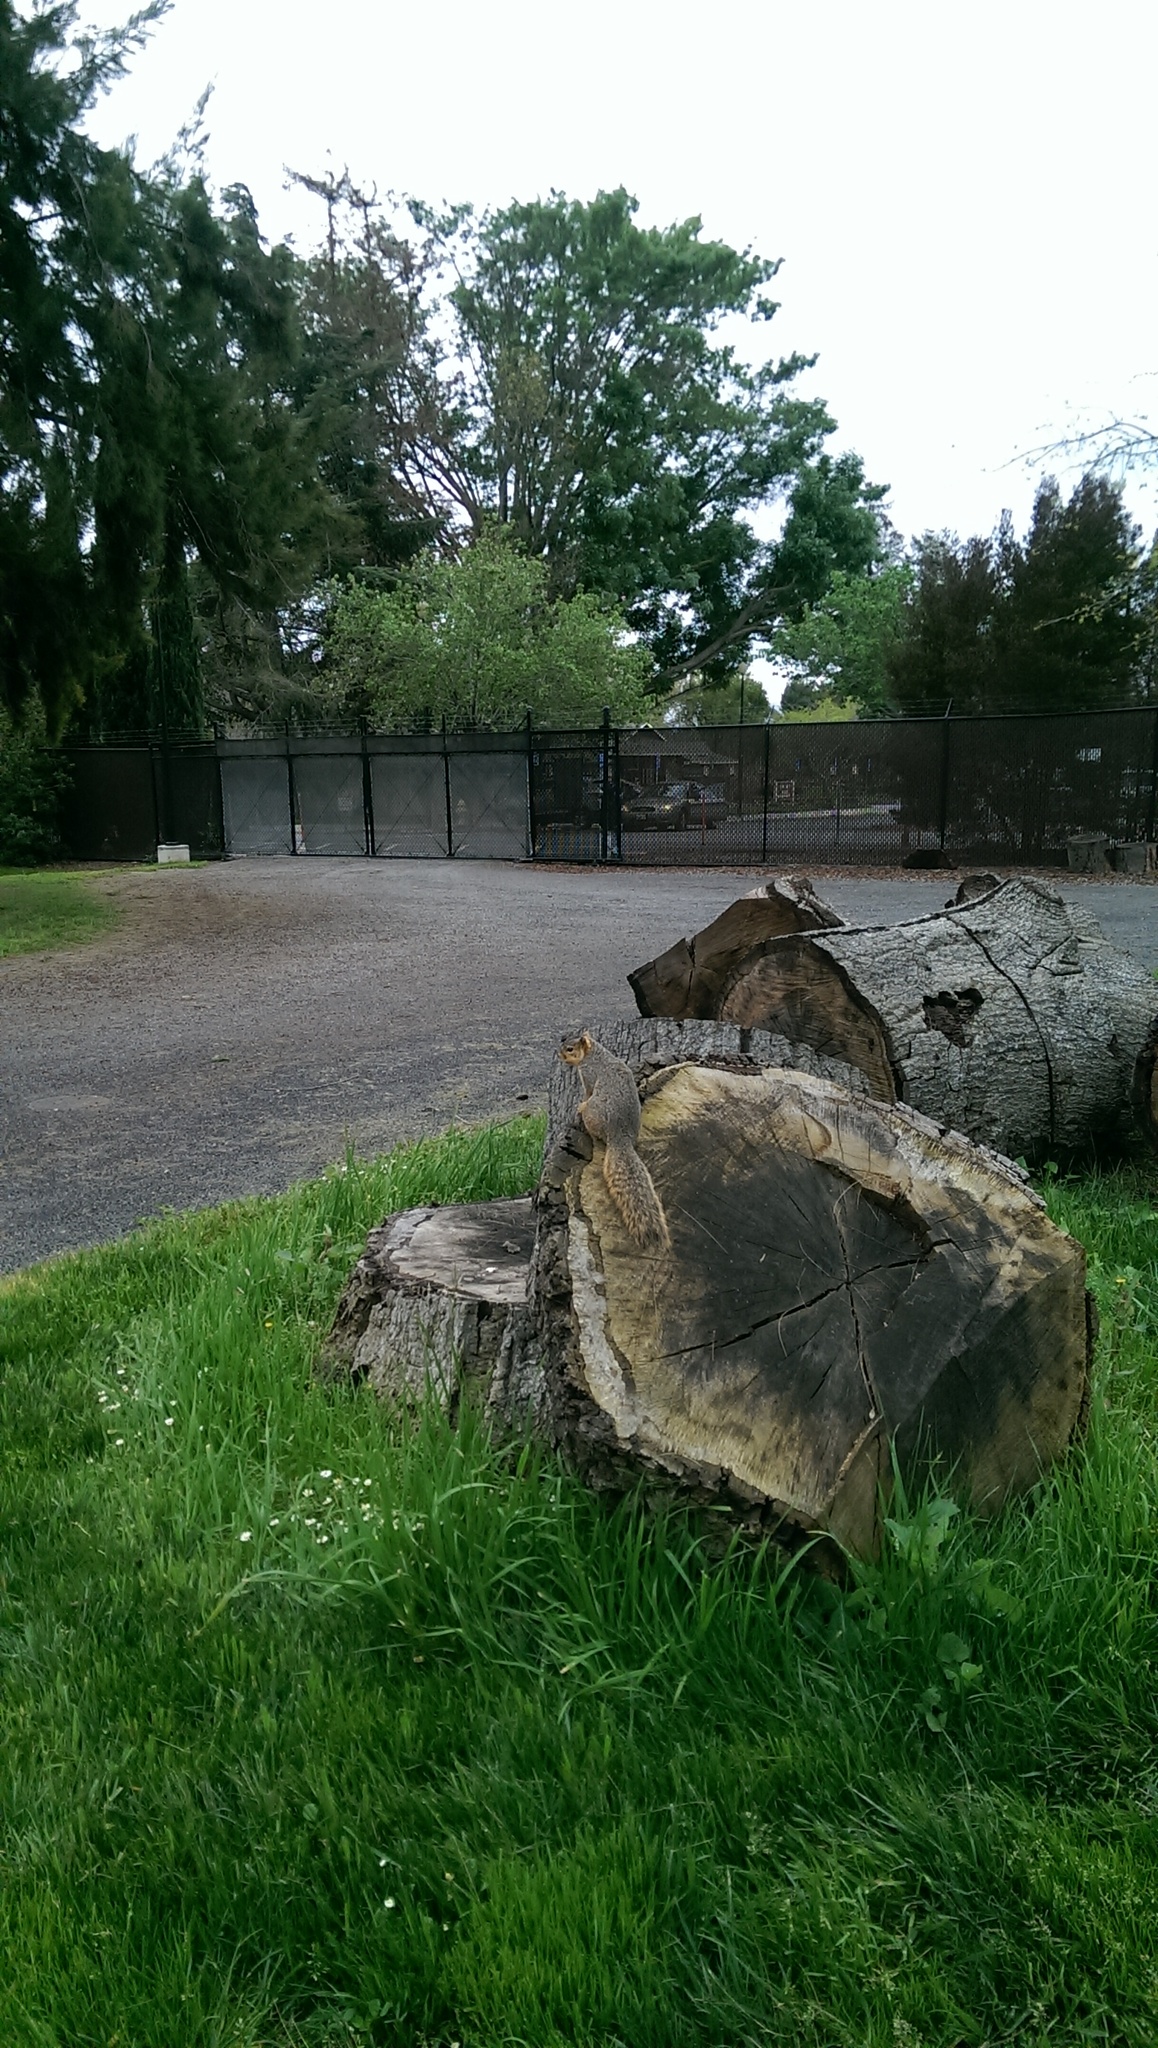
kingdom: Animalia
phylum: Chordata
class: Mammalia
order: Rodentia
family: Sciuridae
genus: Sciurus
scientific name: Sciurus niger
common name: Fox squirrel
